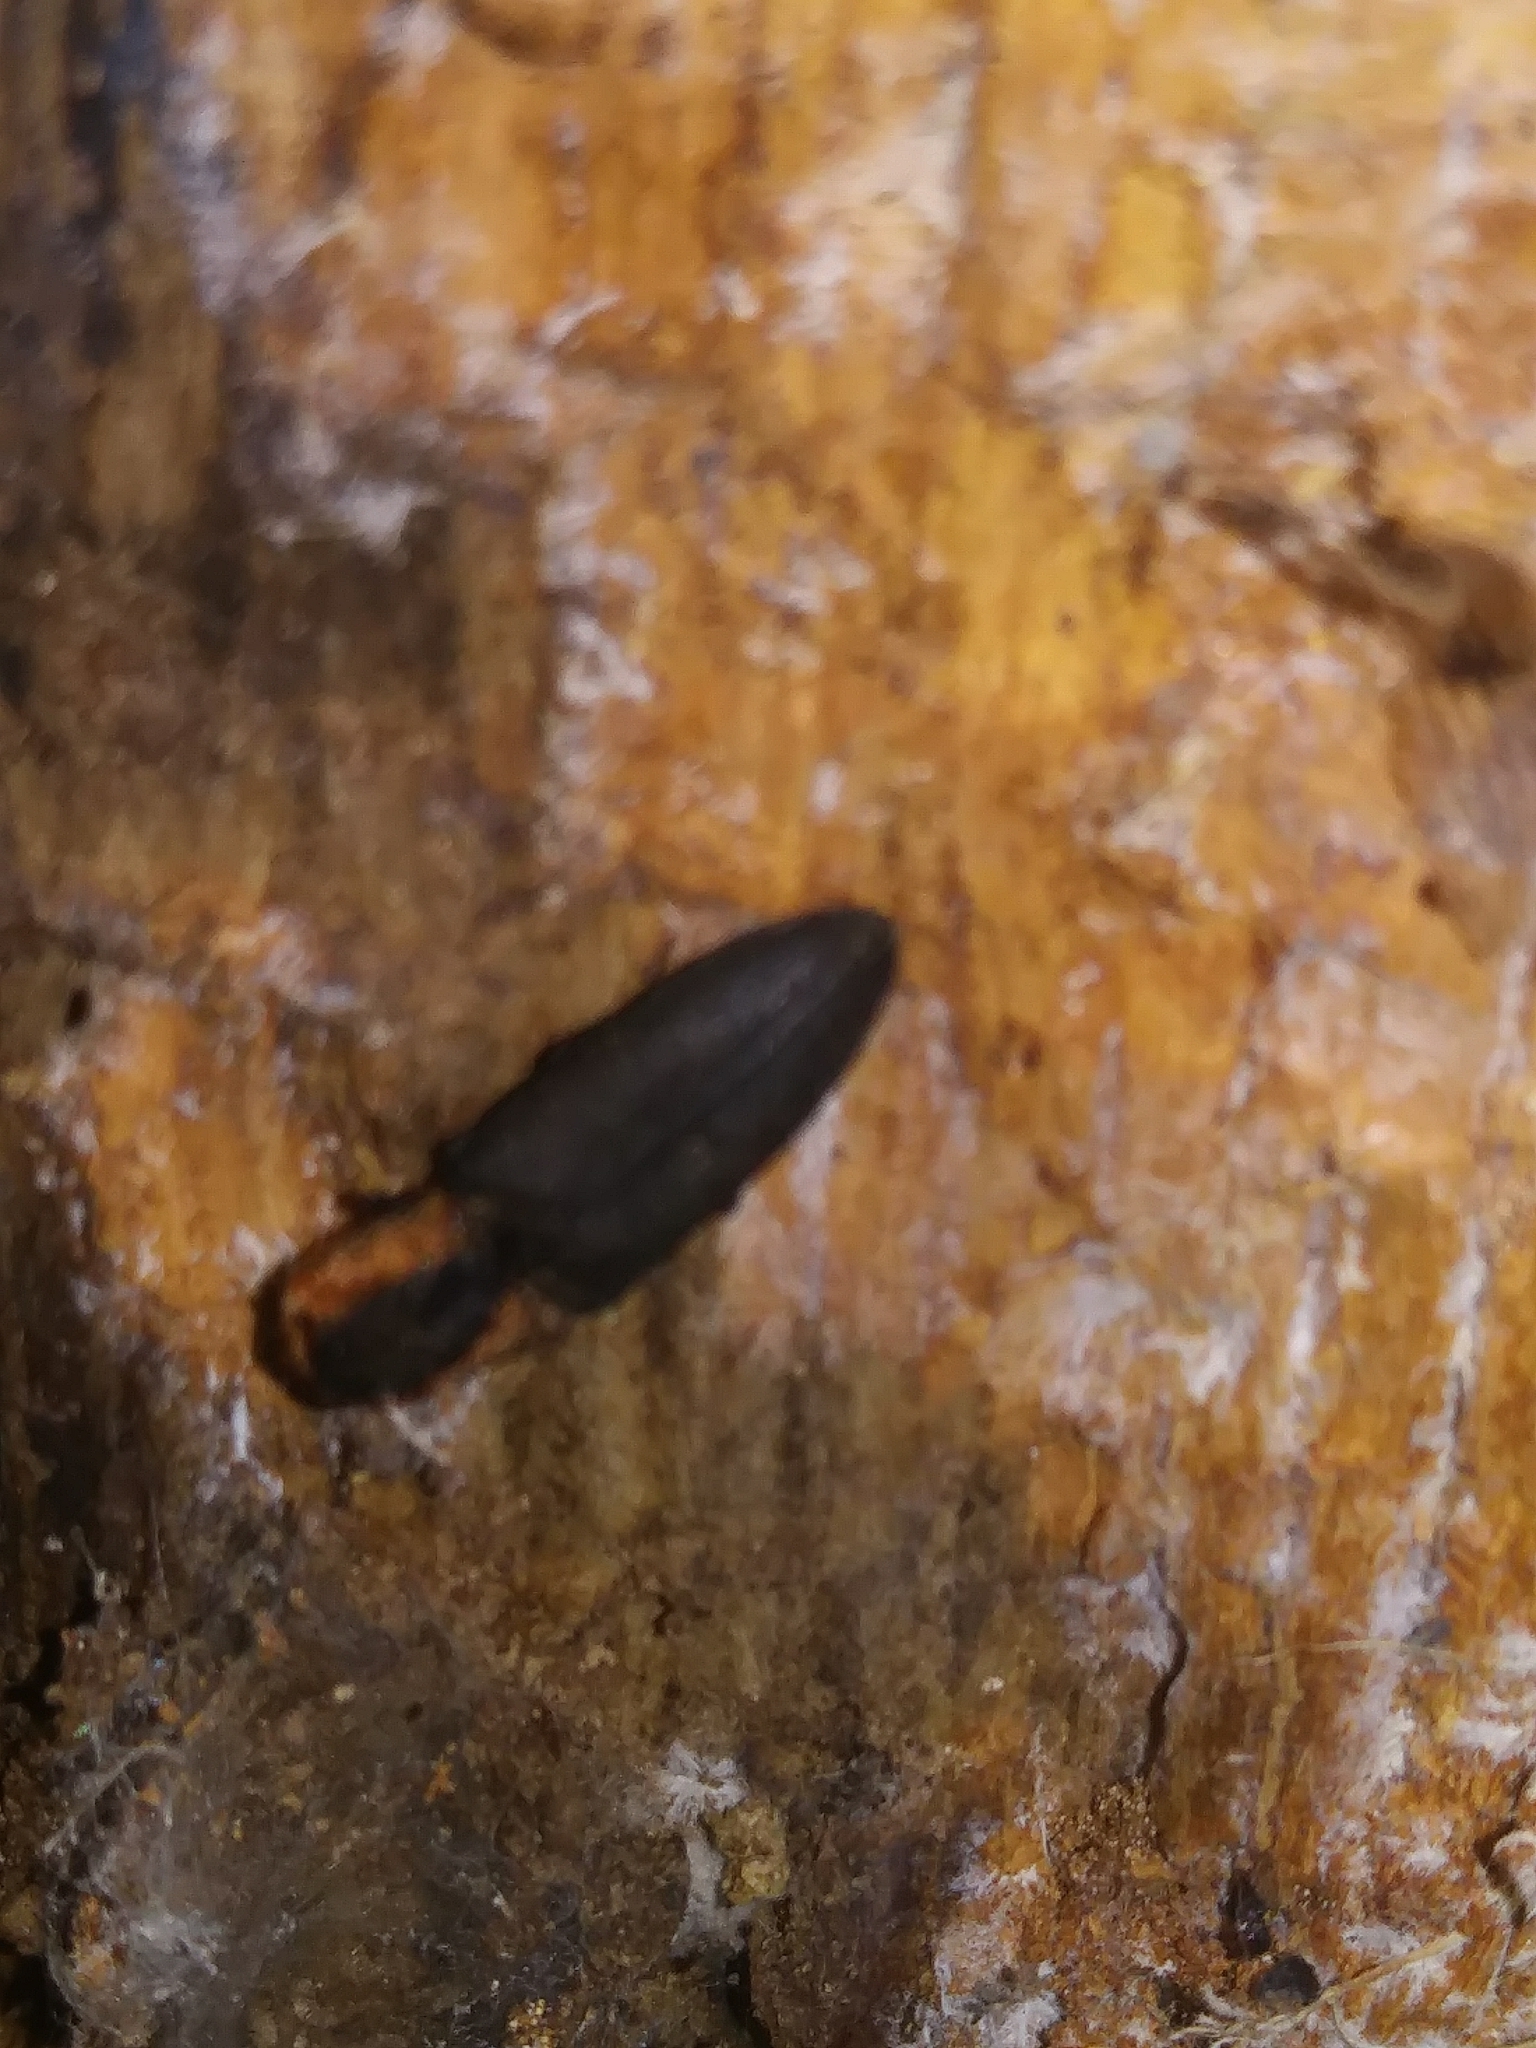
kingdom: Animalia
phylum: Arthropoda
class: Insecta
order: Coleoptera
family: Elateridae
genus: Lacon
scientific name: Lacon discoideus
